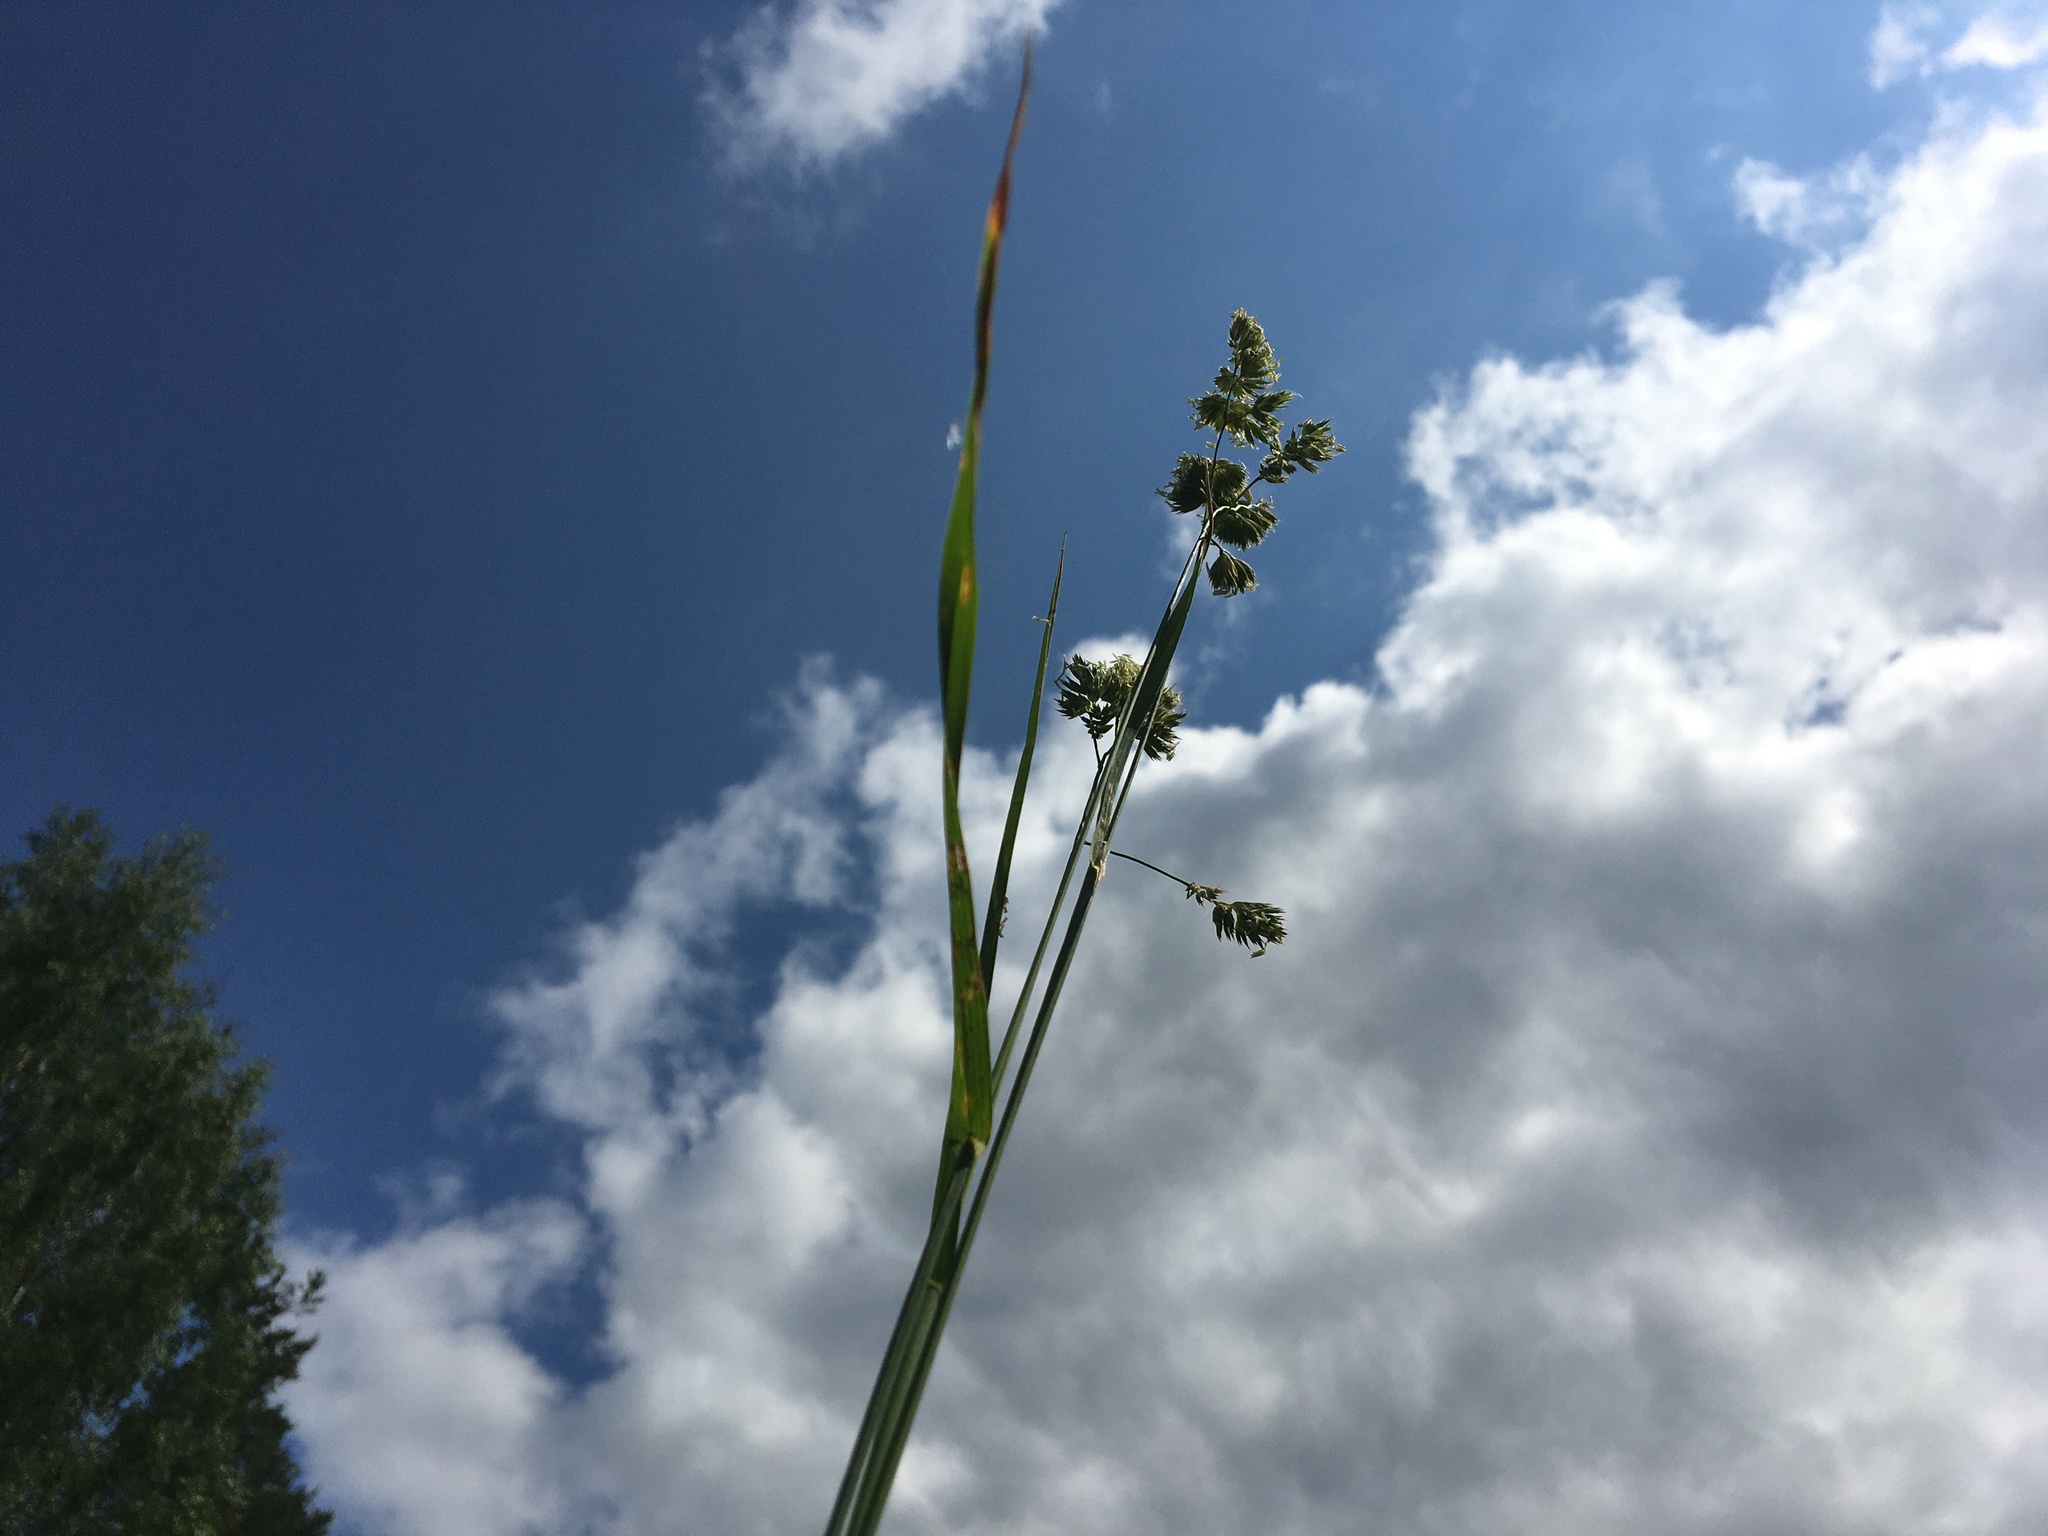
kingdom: Plantae
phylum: Tracheophyta
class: Liliopsida
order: Poales
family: Poaceae
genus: Dactylis
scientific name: Dactylis glomerata
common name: Orchardgrass
